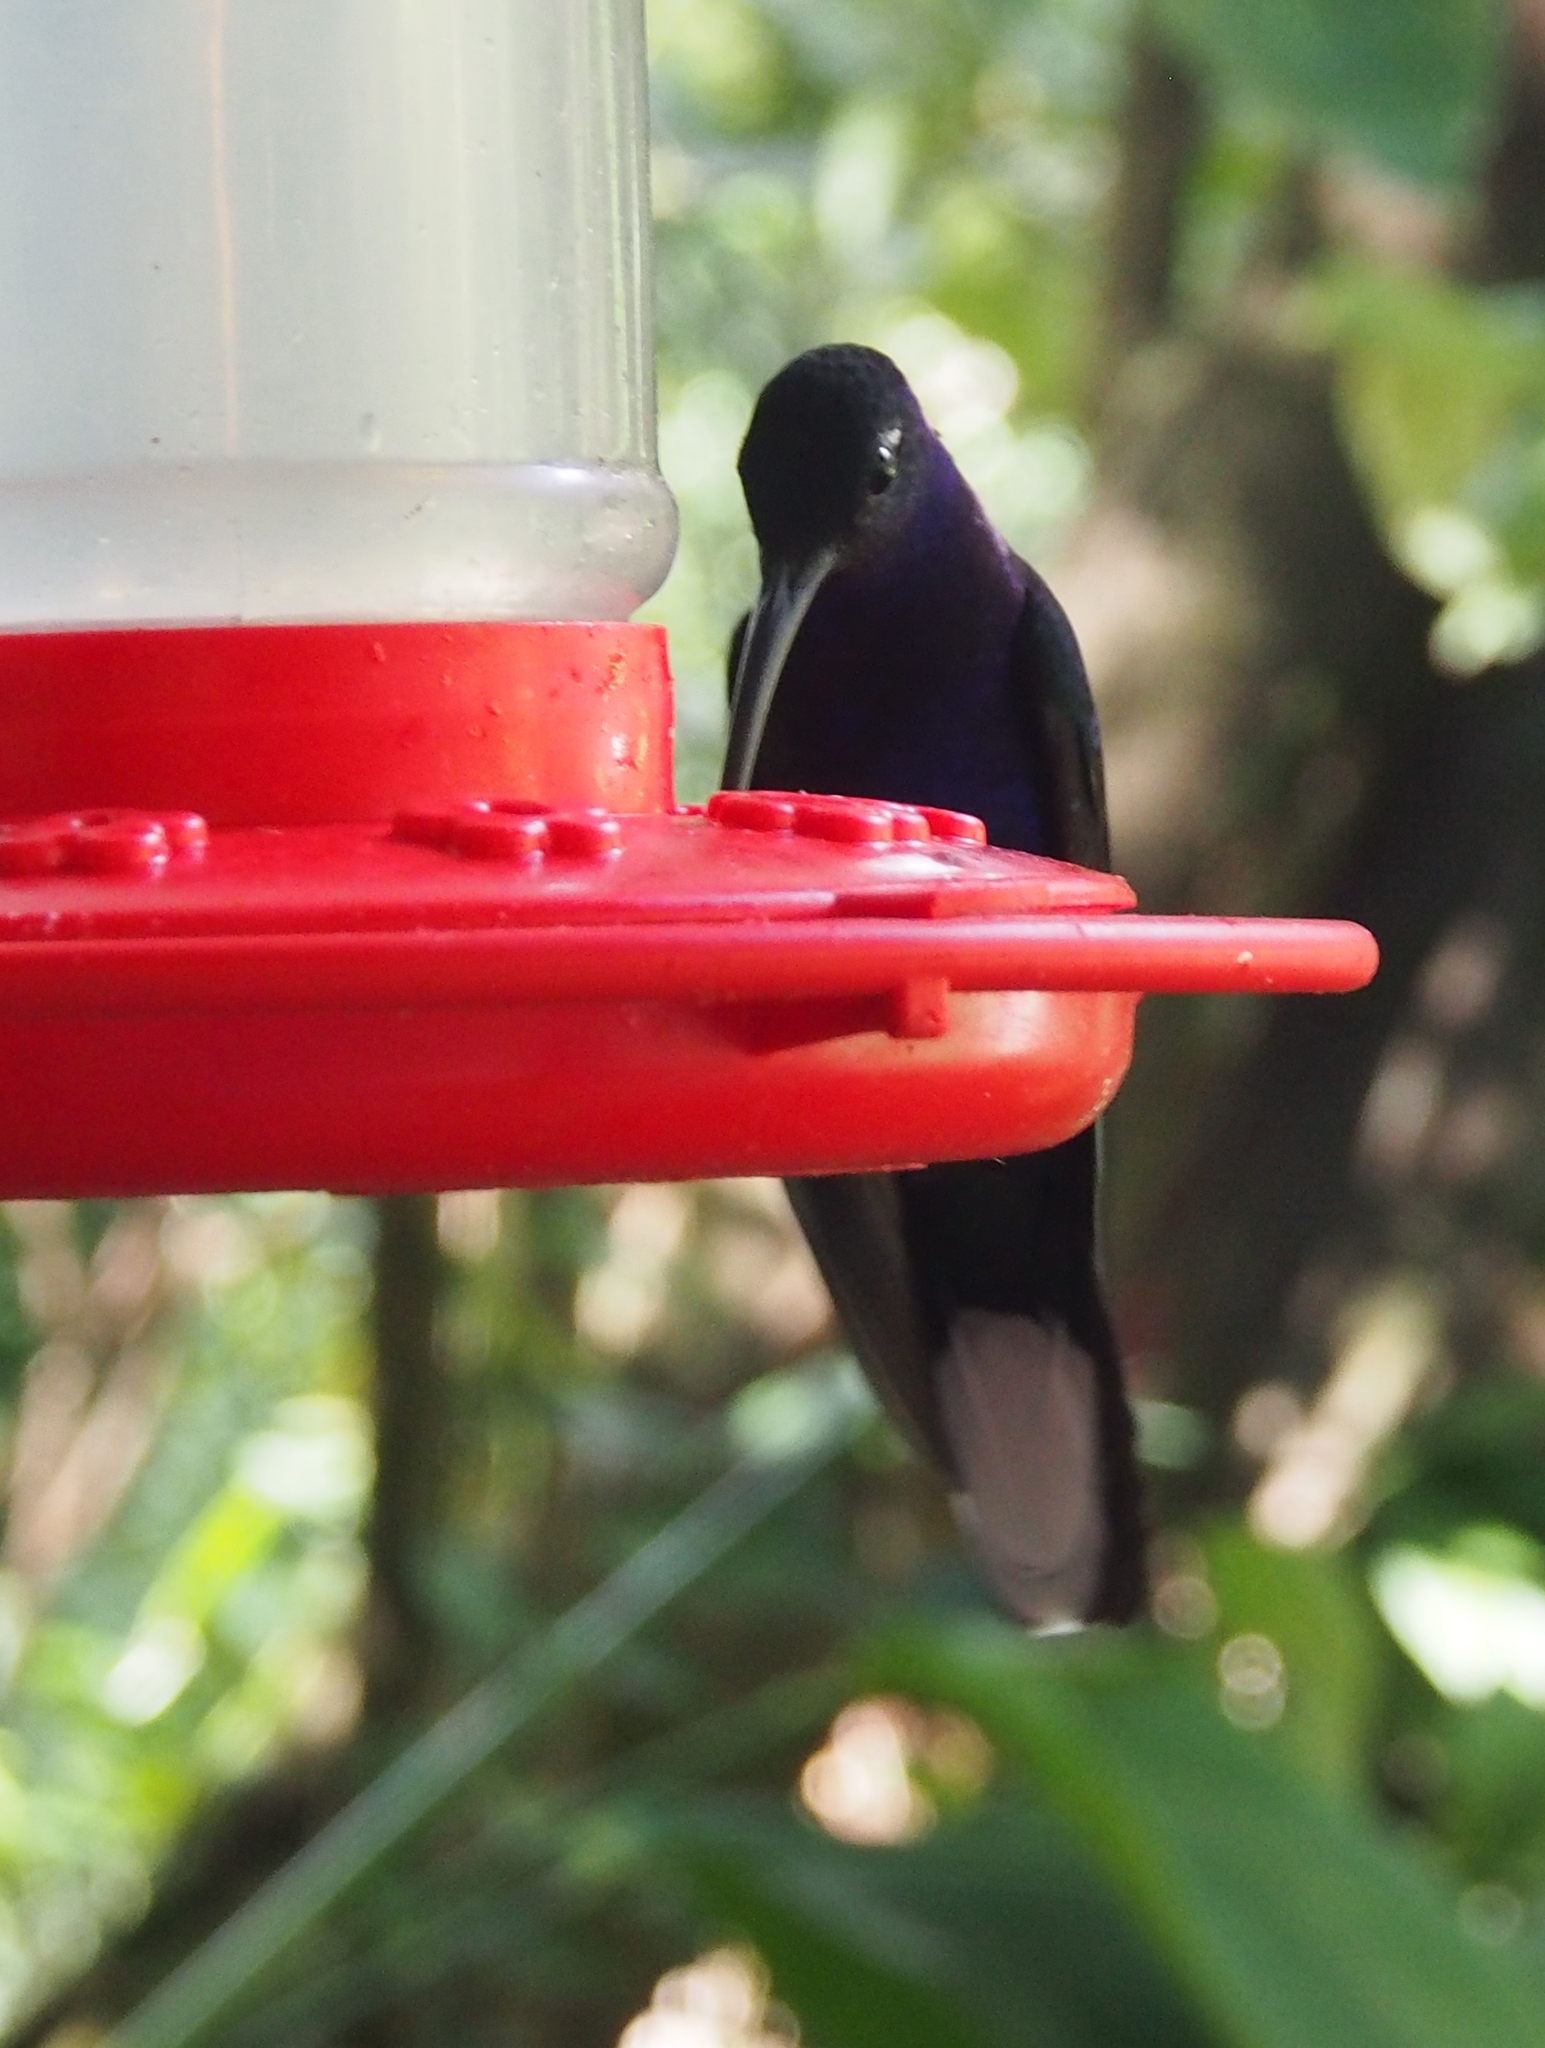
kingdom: Animalia
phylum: Chordata
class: Aves
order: Apodiformes
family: Trochilidae
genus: Campylopterus
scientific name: Campylopterus hemileucurus
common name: Violet sabrewing
